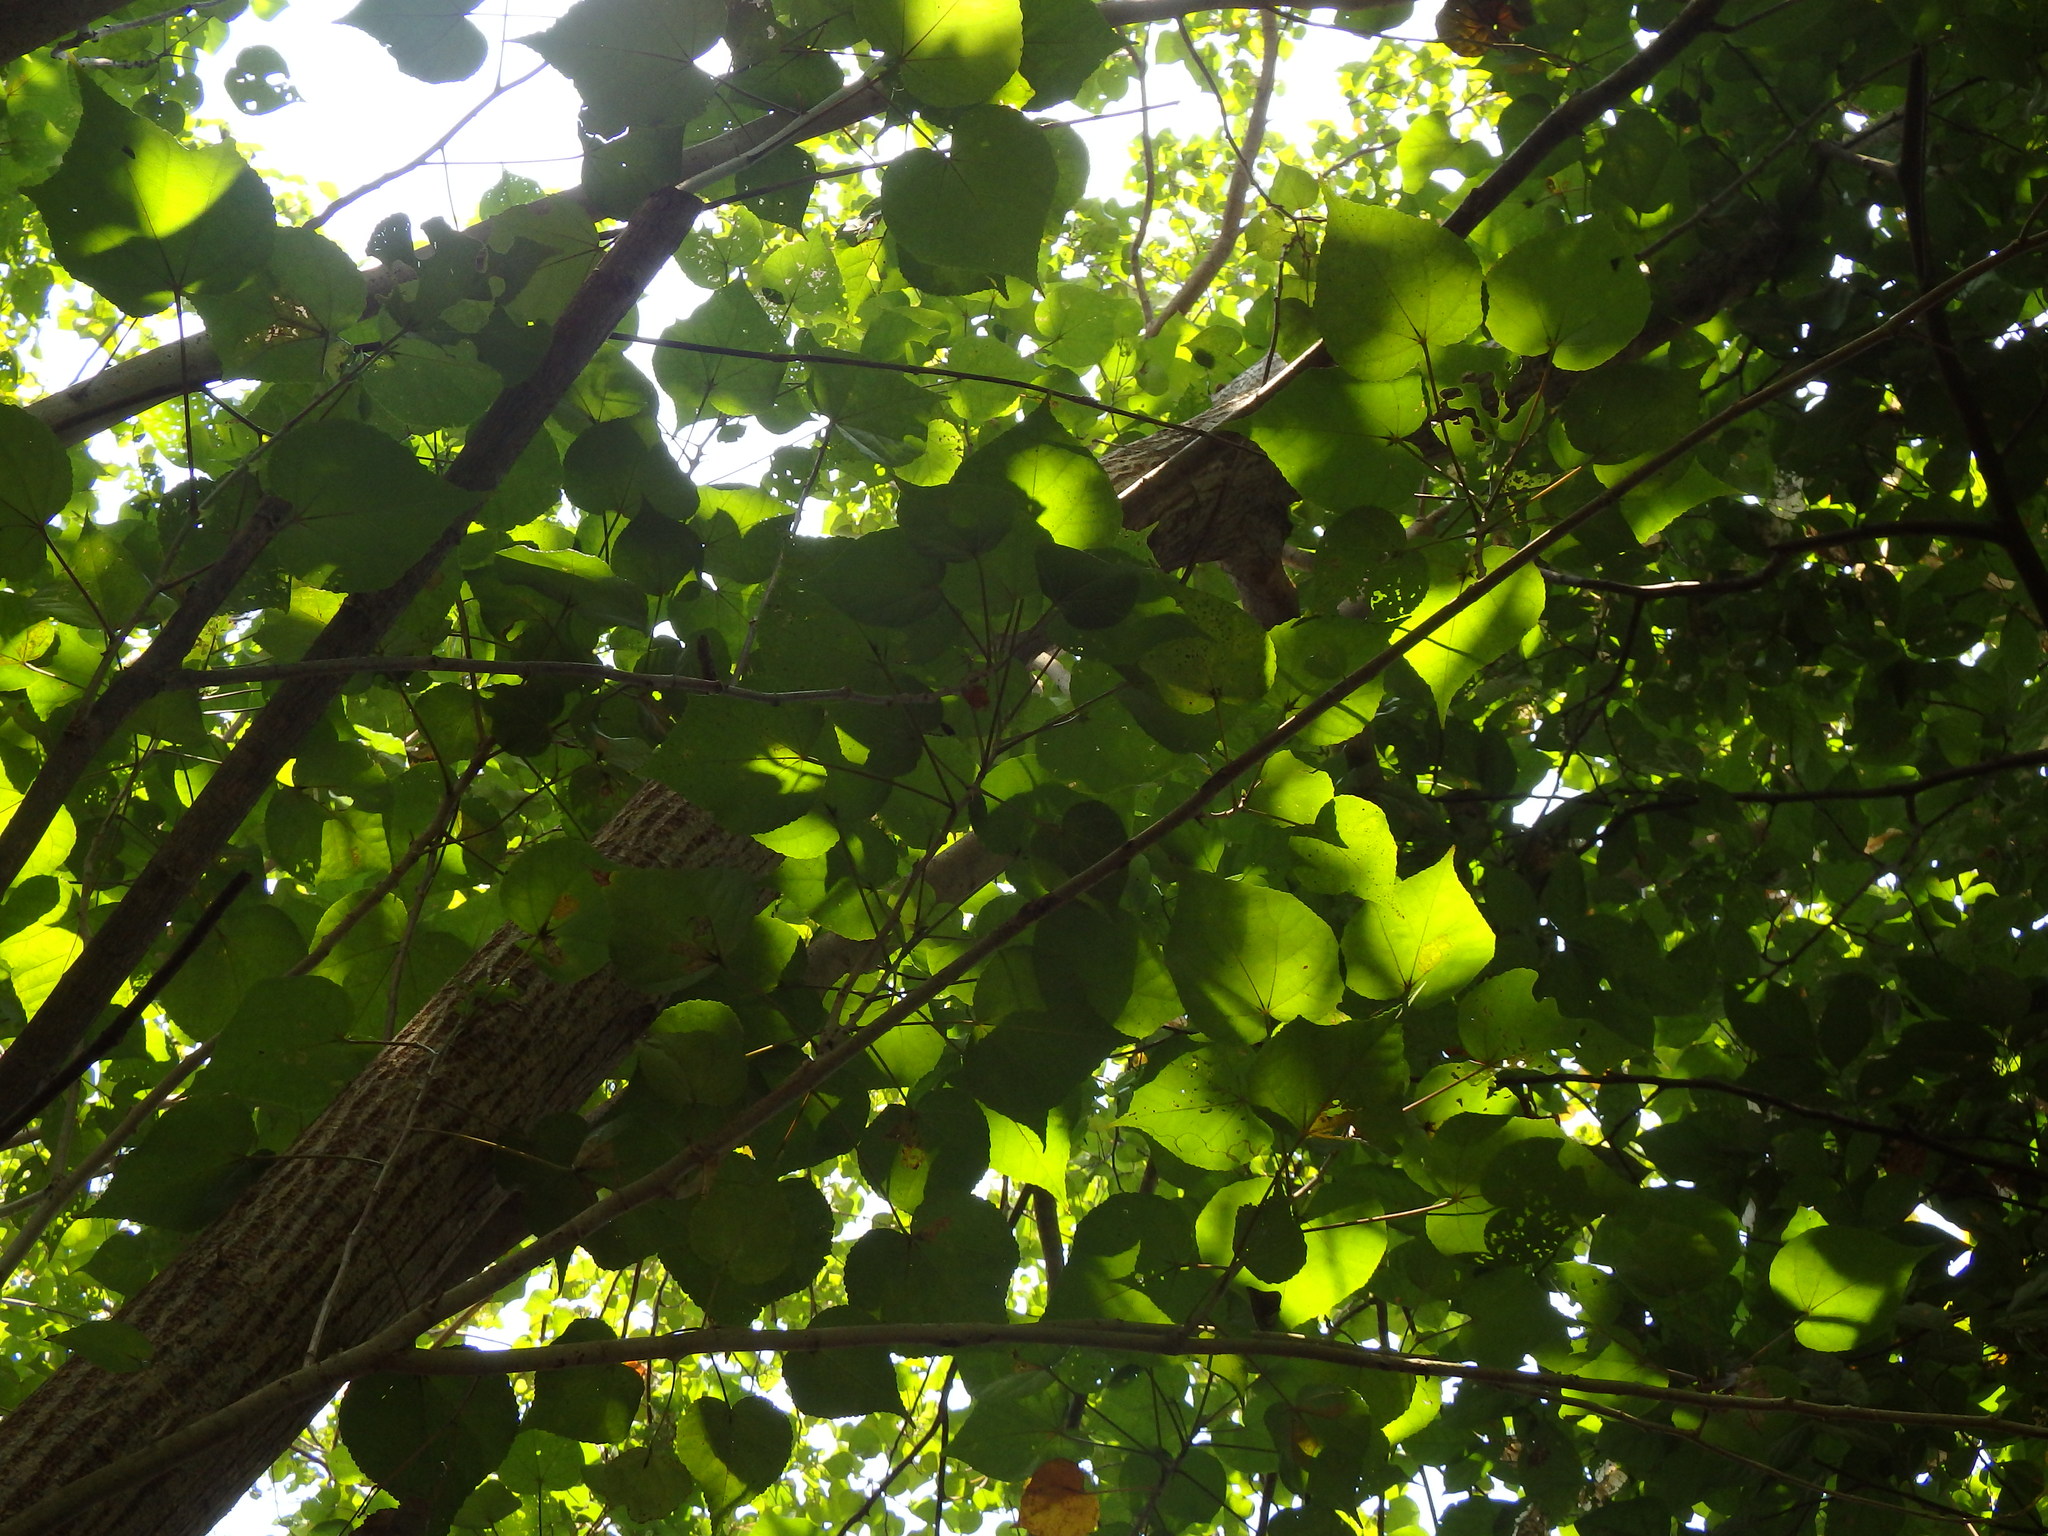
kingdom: Plantae
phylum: Tracheophyta
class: Magnoliopsida
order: Malvales
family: Malvaceae
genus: Talipariti
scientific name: Talipariti tiliaceum
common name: Sea hibiscus
